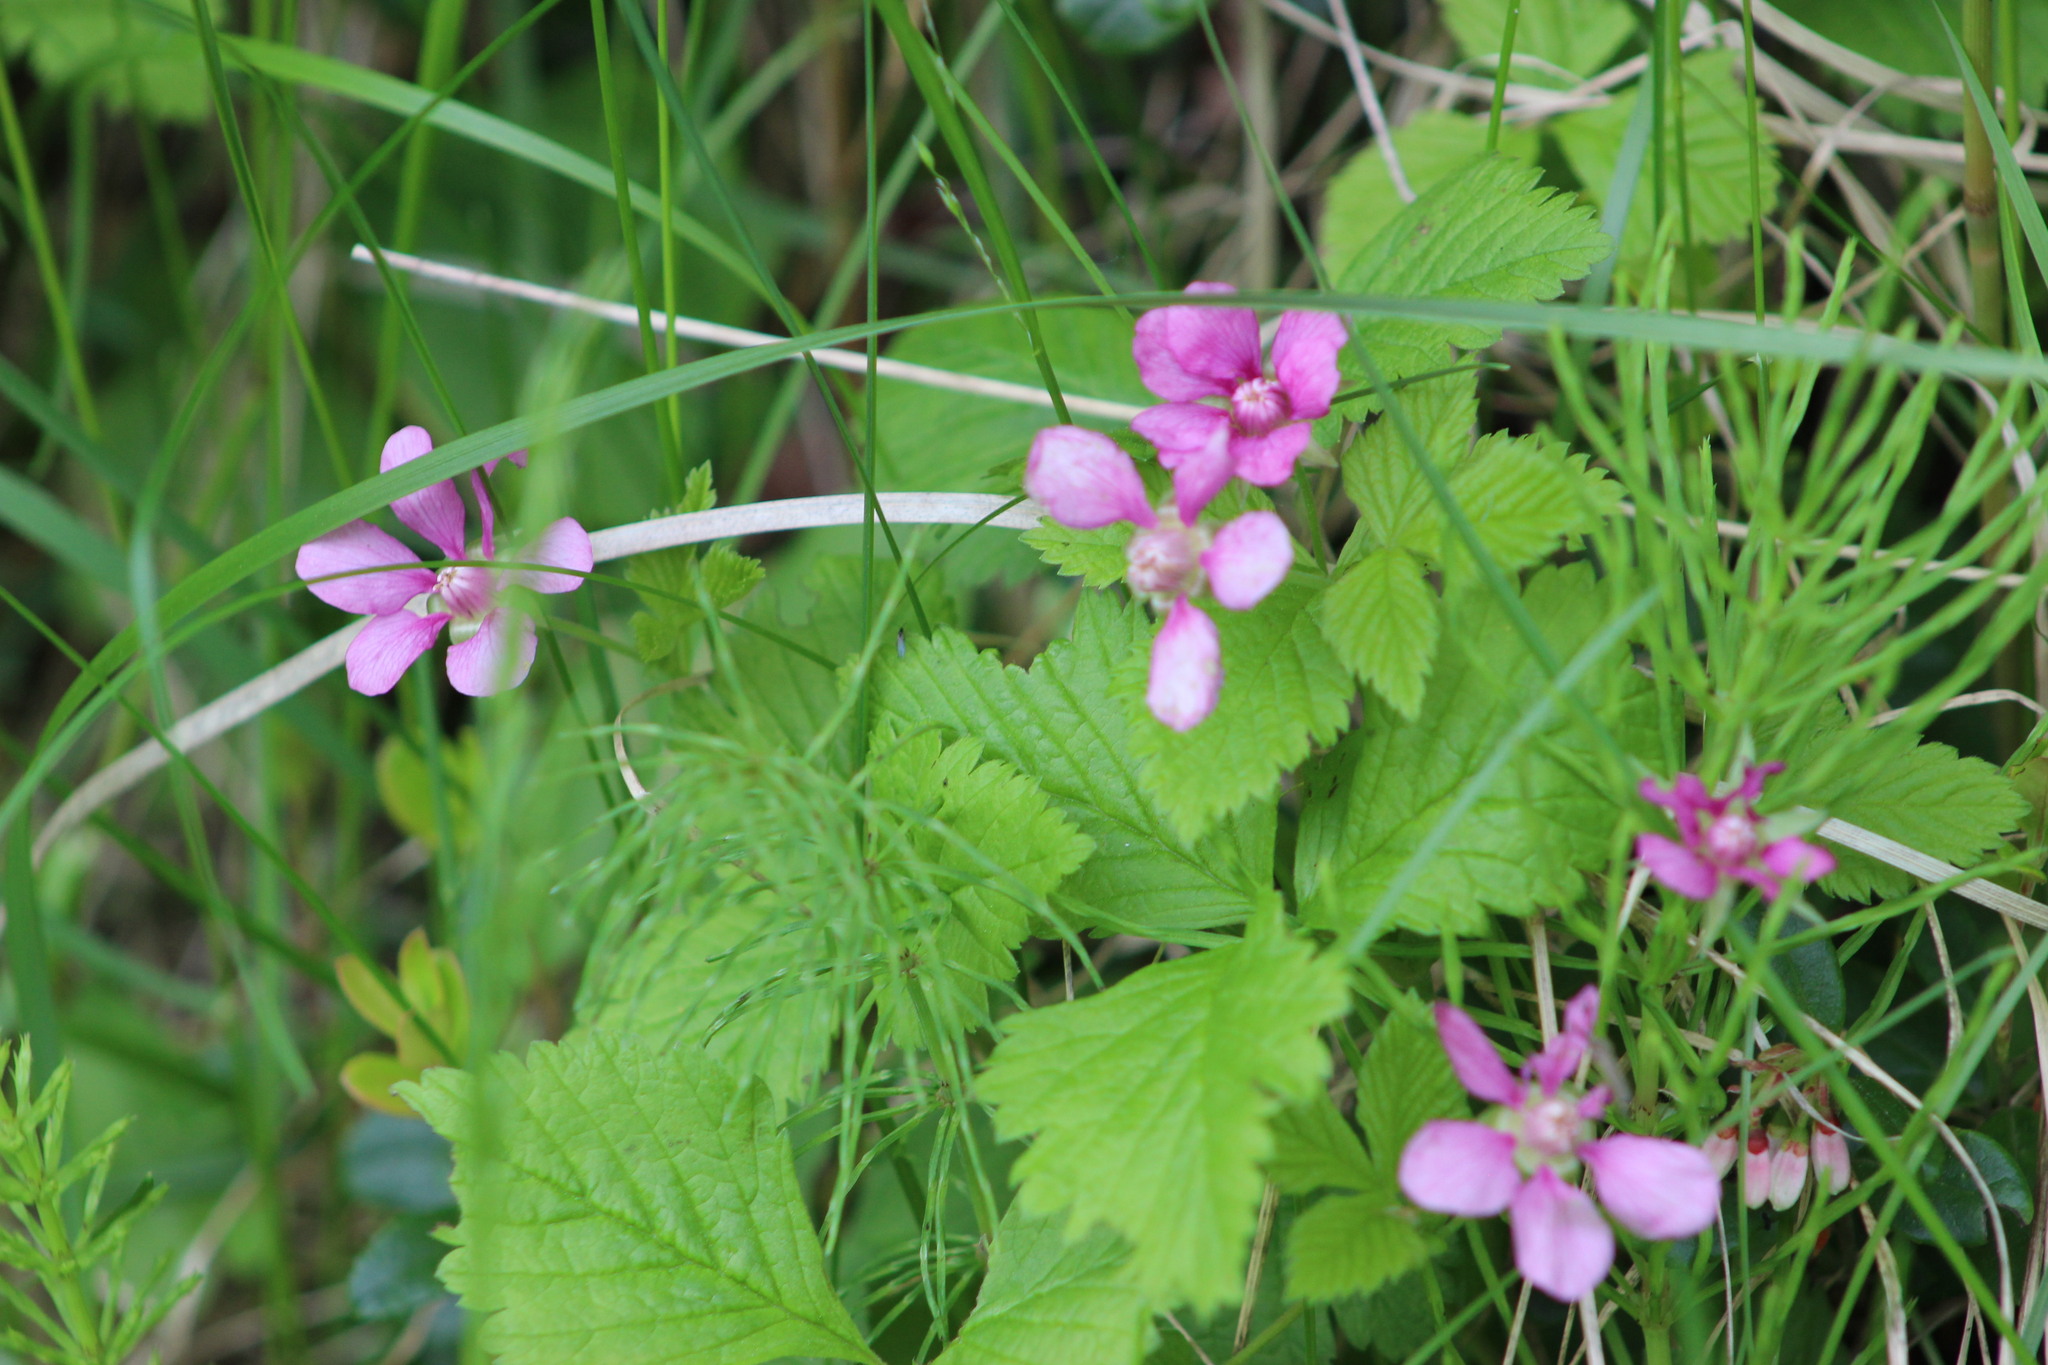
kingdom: Plantae
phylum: Tracheophyta
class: Magnoliopsida
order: Rosales
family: Rosaceae
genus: Rubus
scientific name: Rubus arcticus
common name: Arctic bramble
